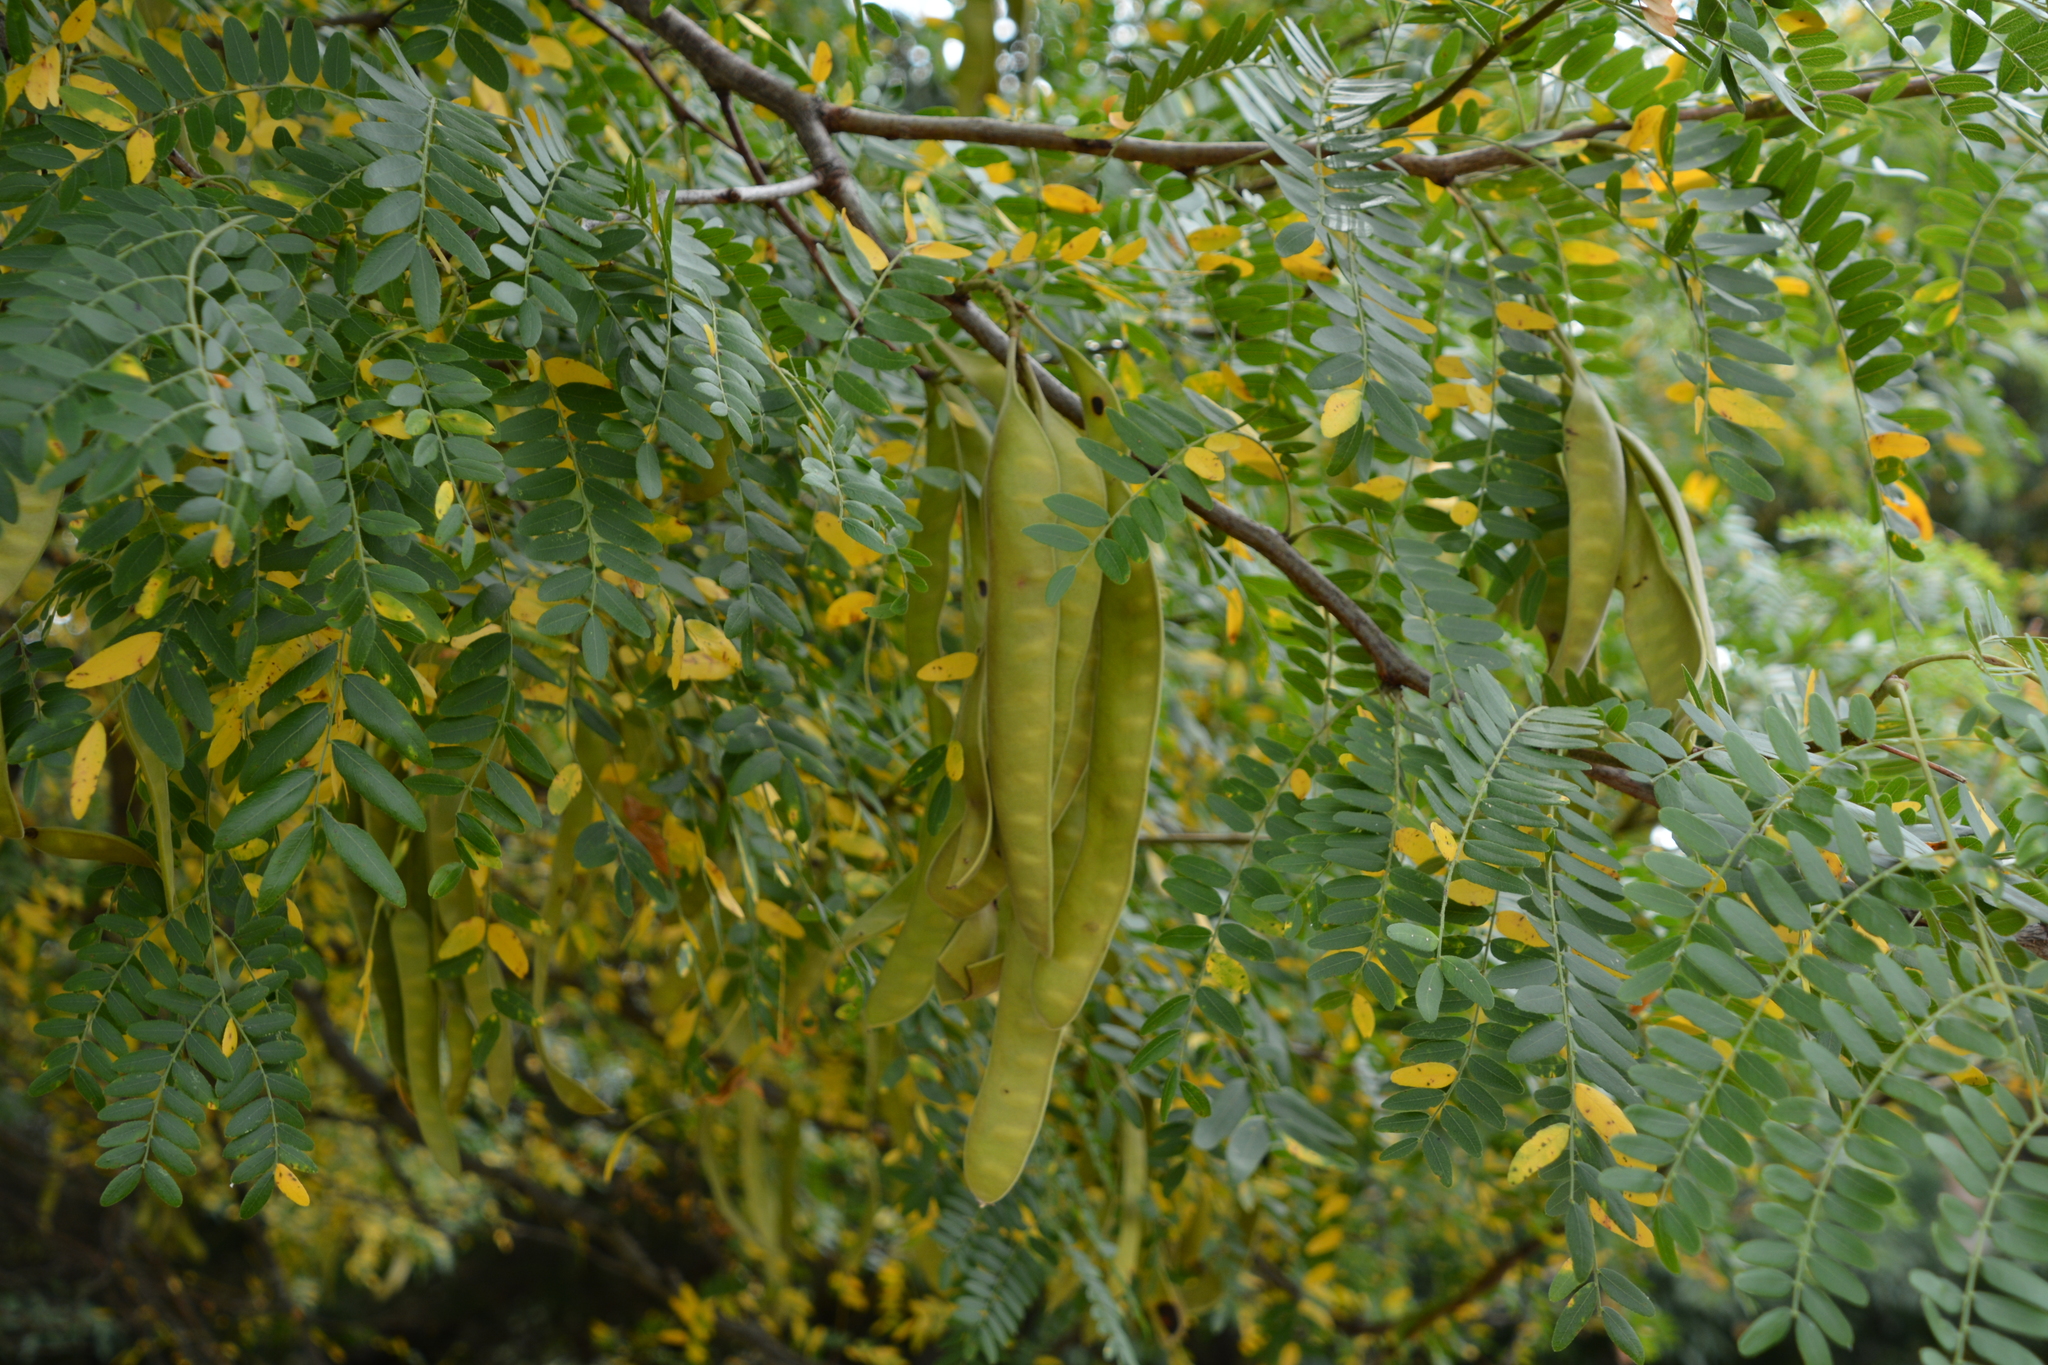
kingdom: Plantae
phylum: Tracheophyta
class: Magnoliopsida
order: Fabales
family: Fabaceae
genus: Gleditsia
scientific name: Gleditsia triacanthos
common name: Common honeylocust
